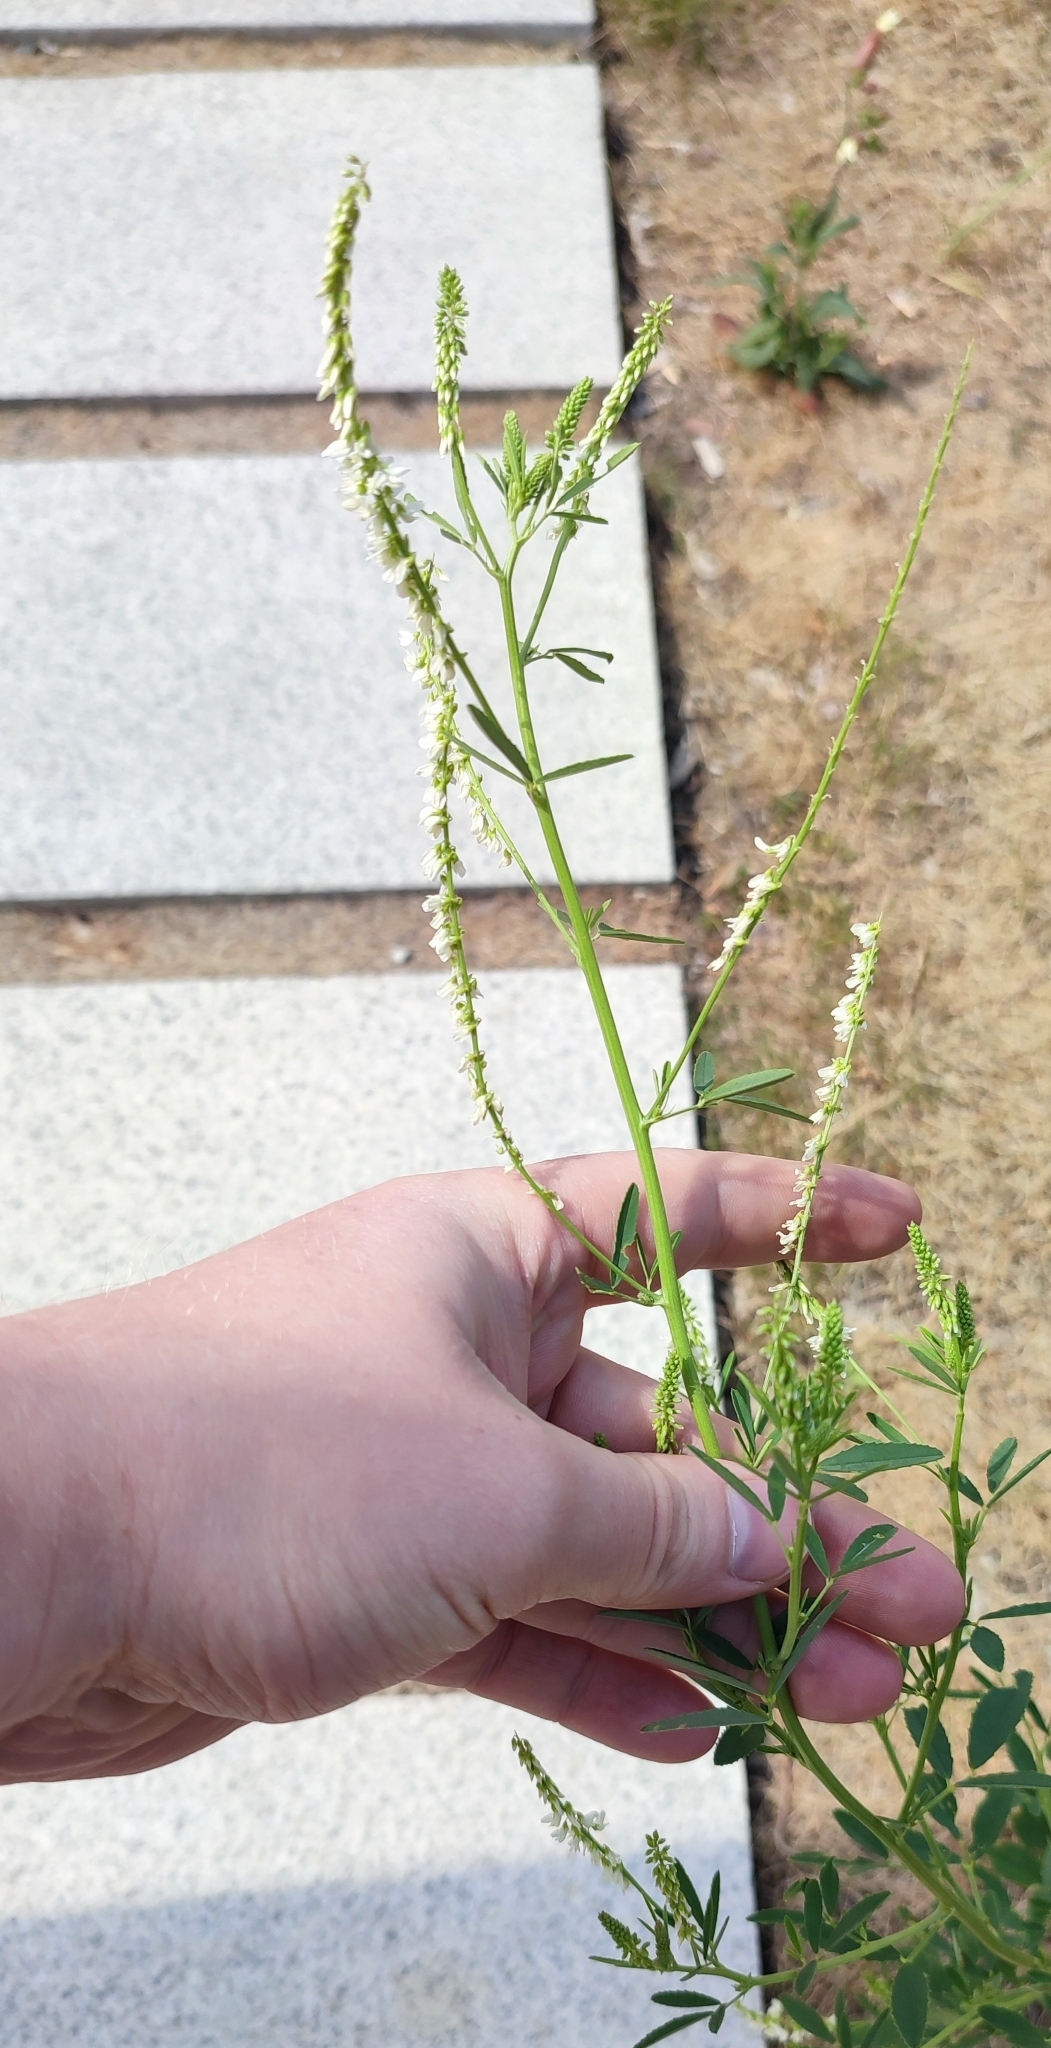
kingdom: Plantae
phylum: Tracheophyta
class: Magnoliopsida
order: Fabales
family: Fabaceae
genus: Melilotus
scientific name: Melilotus albus
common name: White melilot
